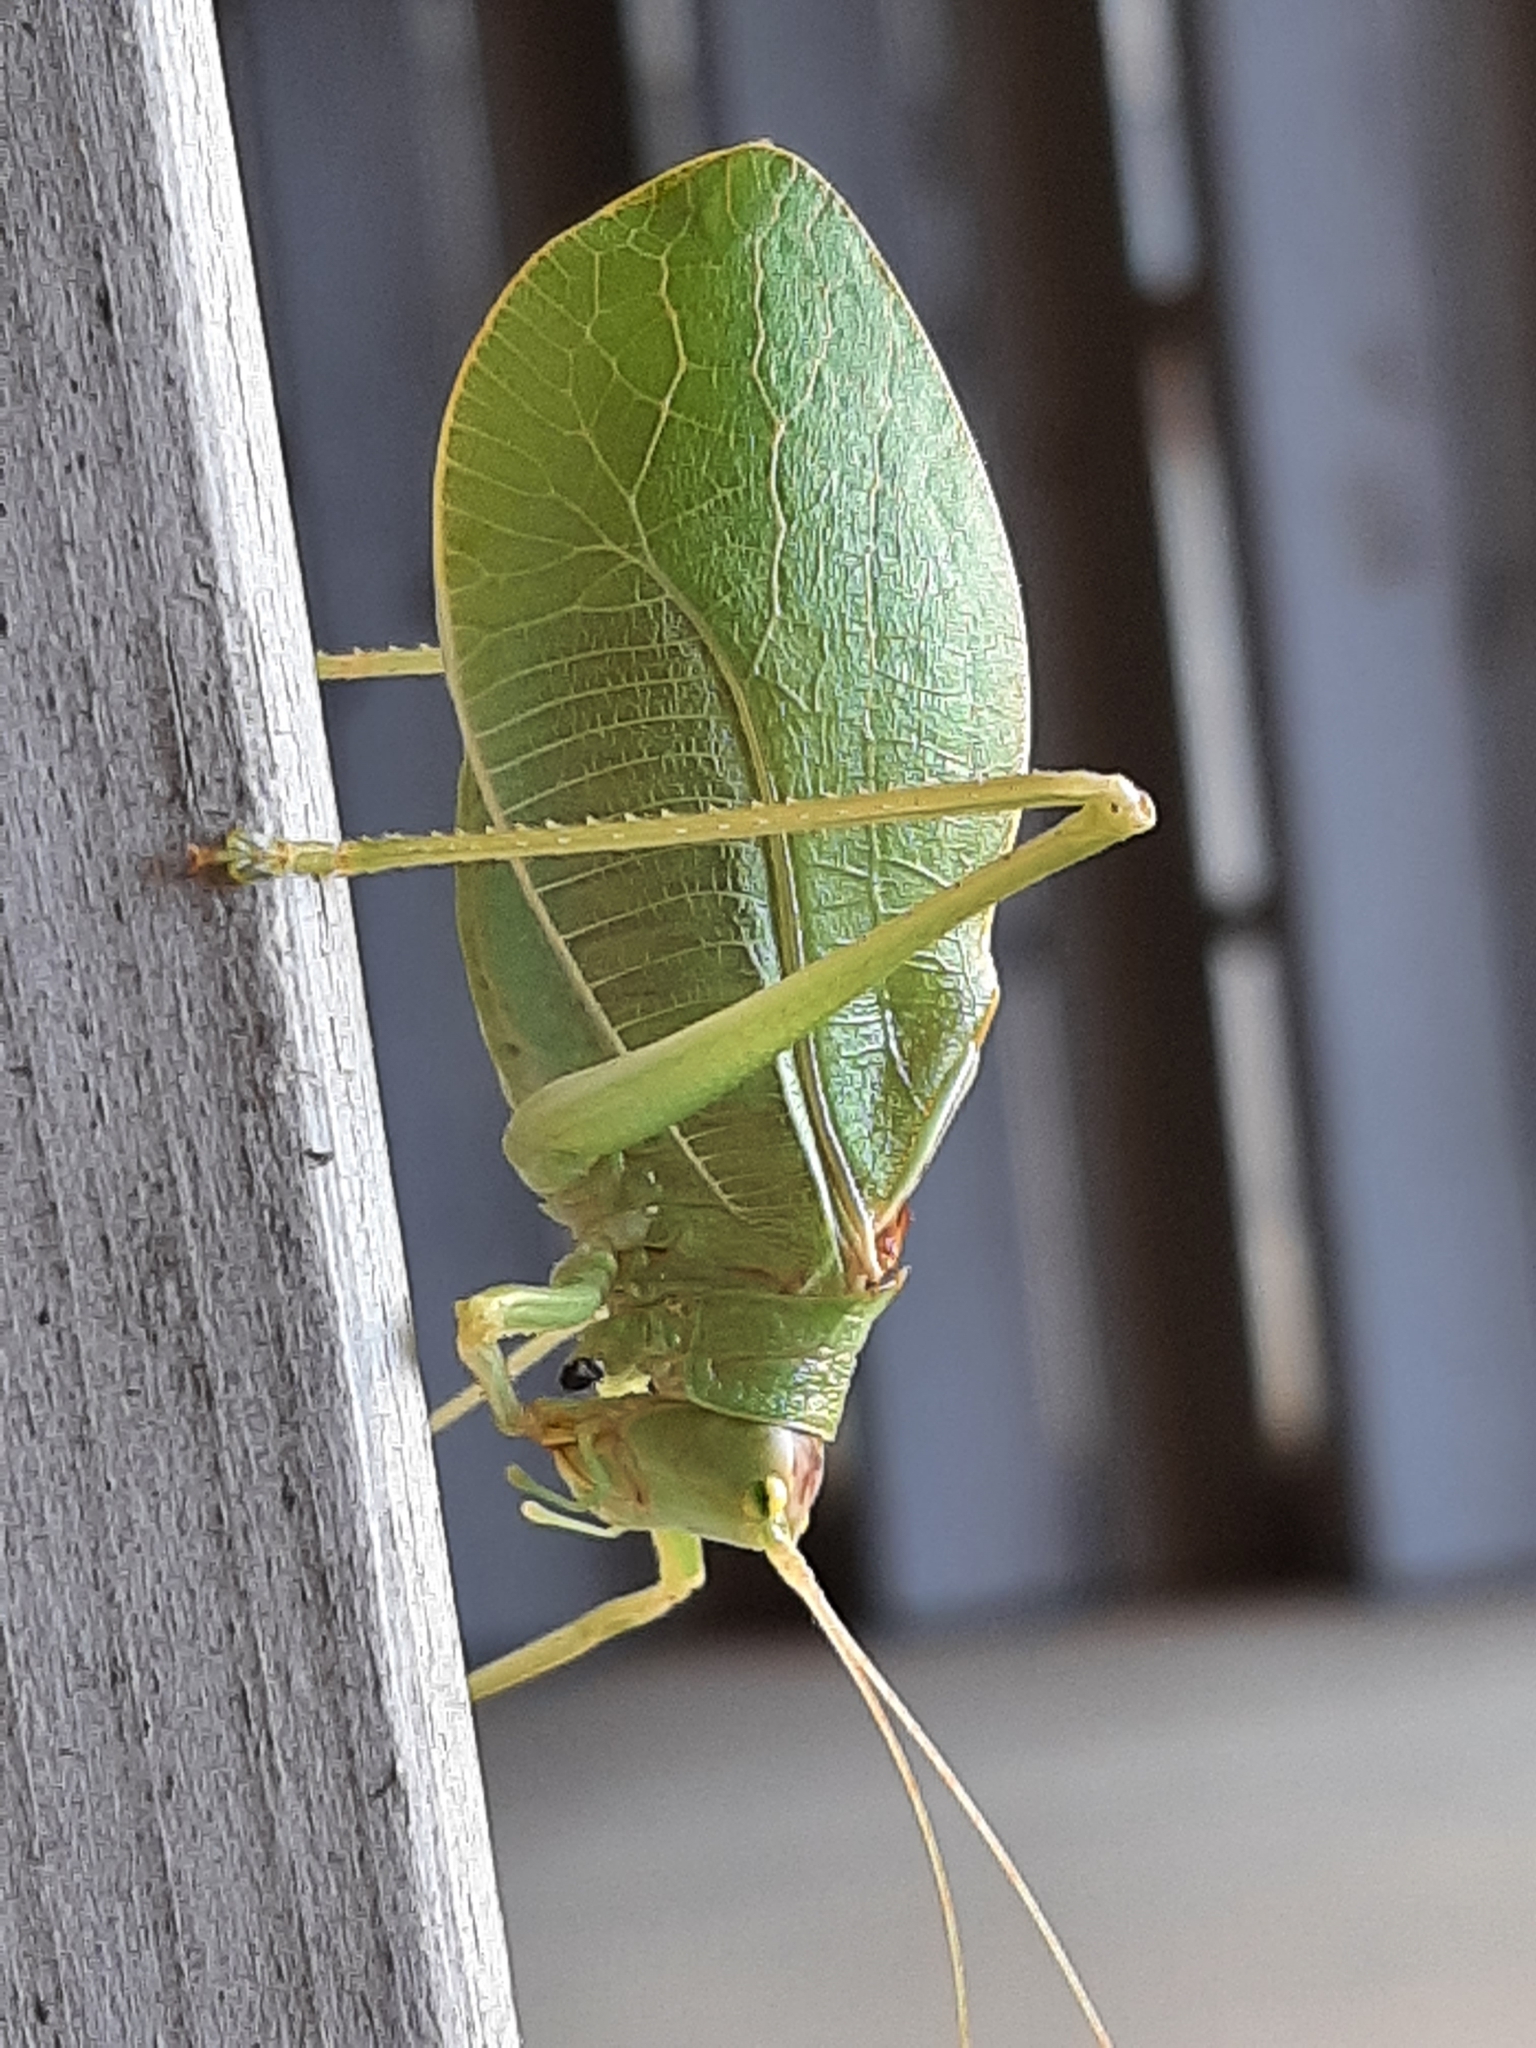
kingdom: Animalia
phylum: Arthropoda
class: Insecta
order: Orthoptera
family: Tettigoniidae
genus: Pterophylla
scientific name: Pterophylla camellifolia
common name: Common true katydid
